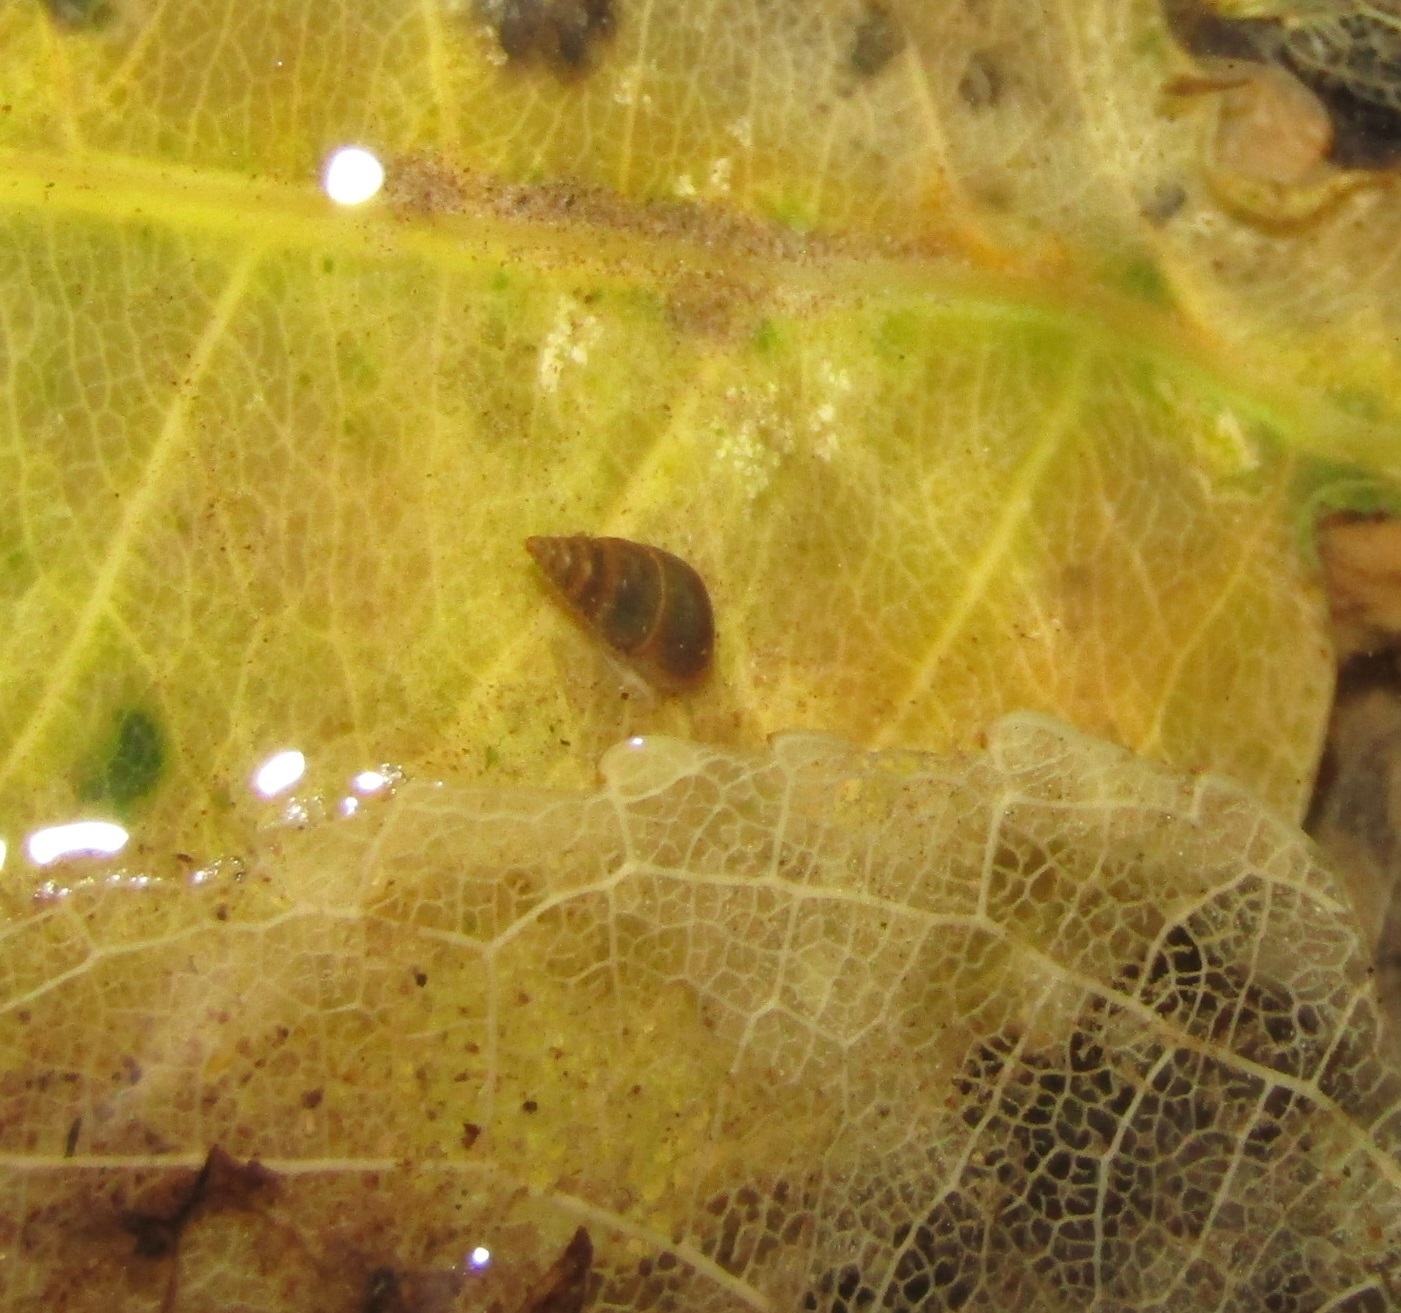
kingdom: Animalia
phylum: Mollusca
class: Gastropoda
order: Littorinimorpha
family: Tateidae
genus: Potamopyrgus
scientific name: Potamopyrgus antipodarum
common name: Jenkins' spire snail
